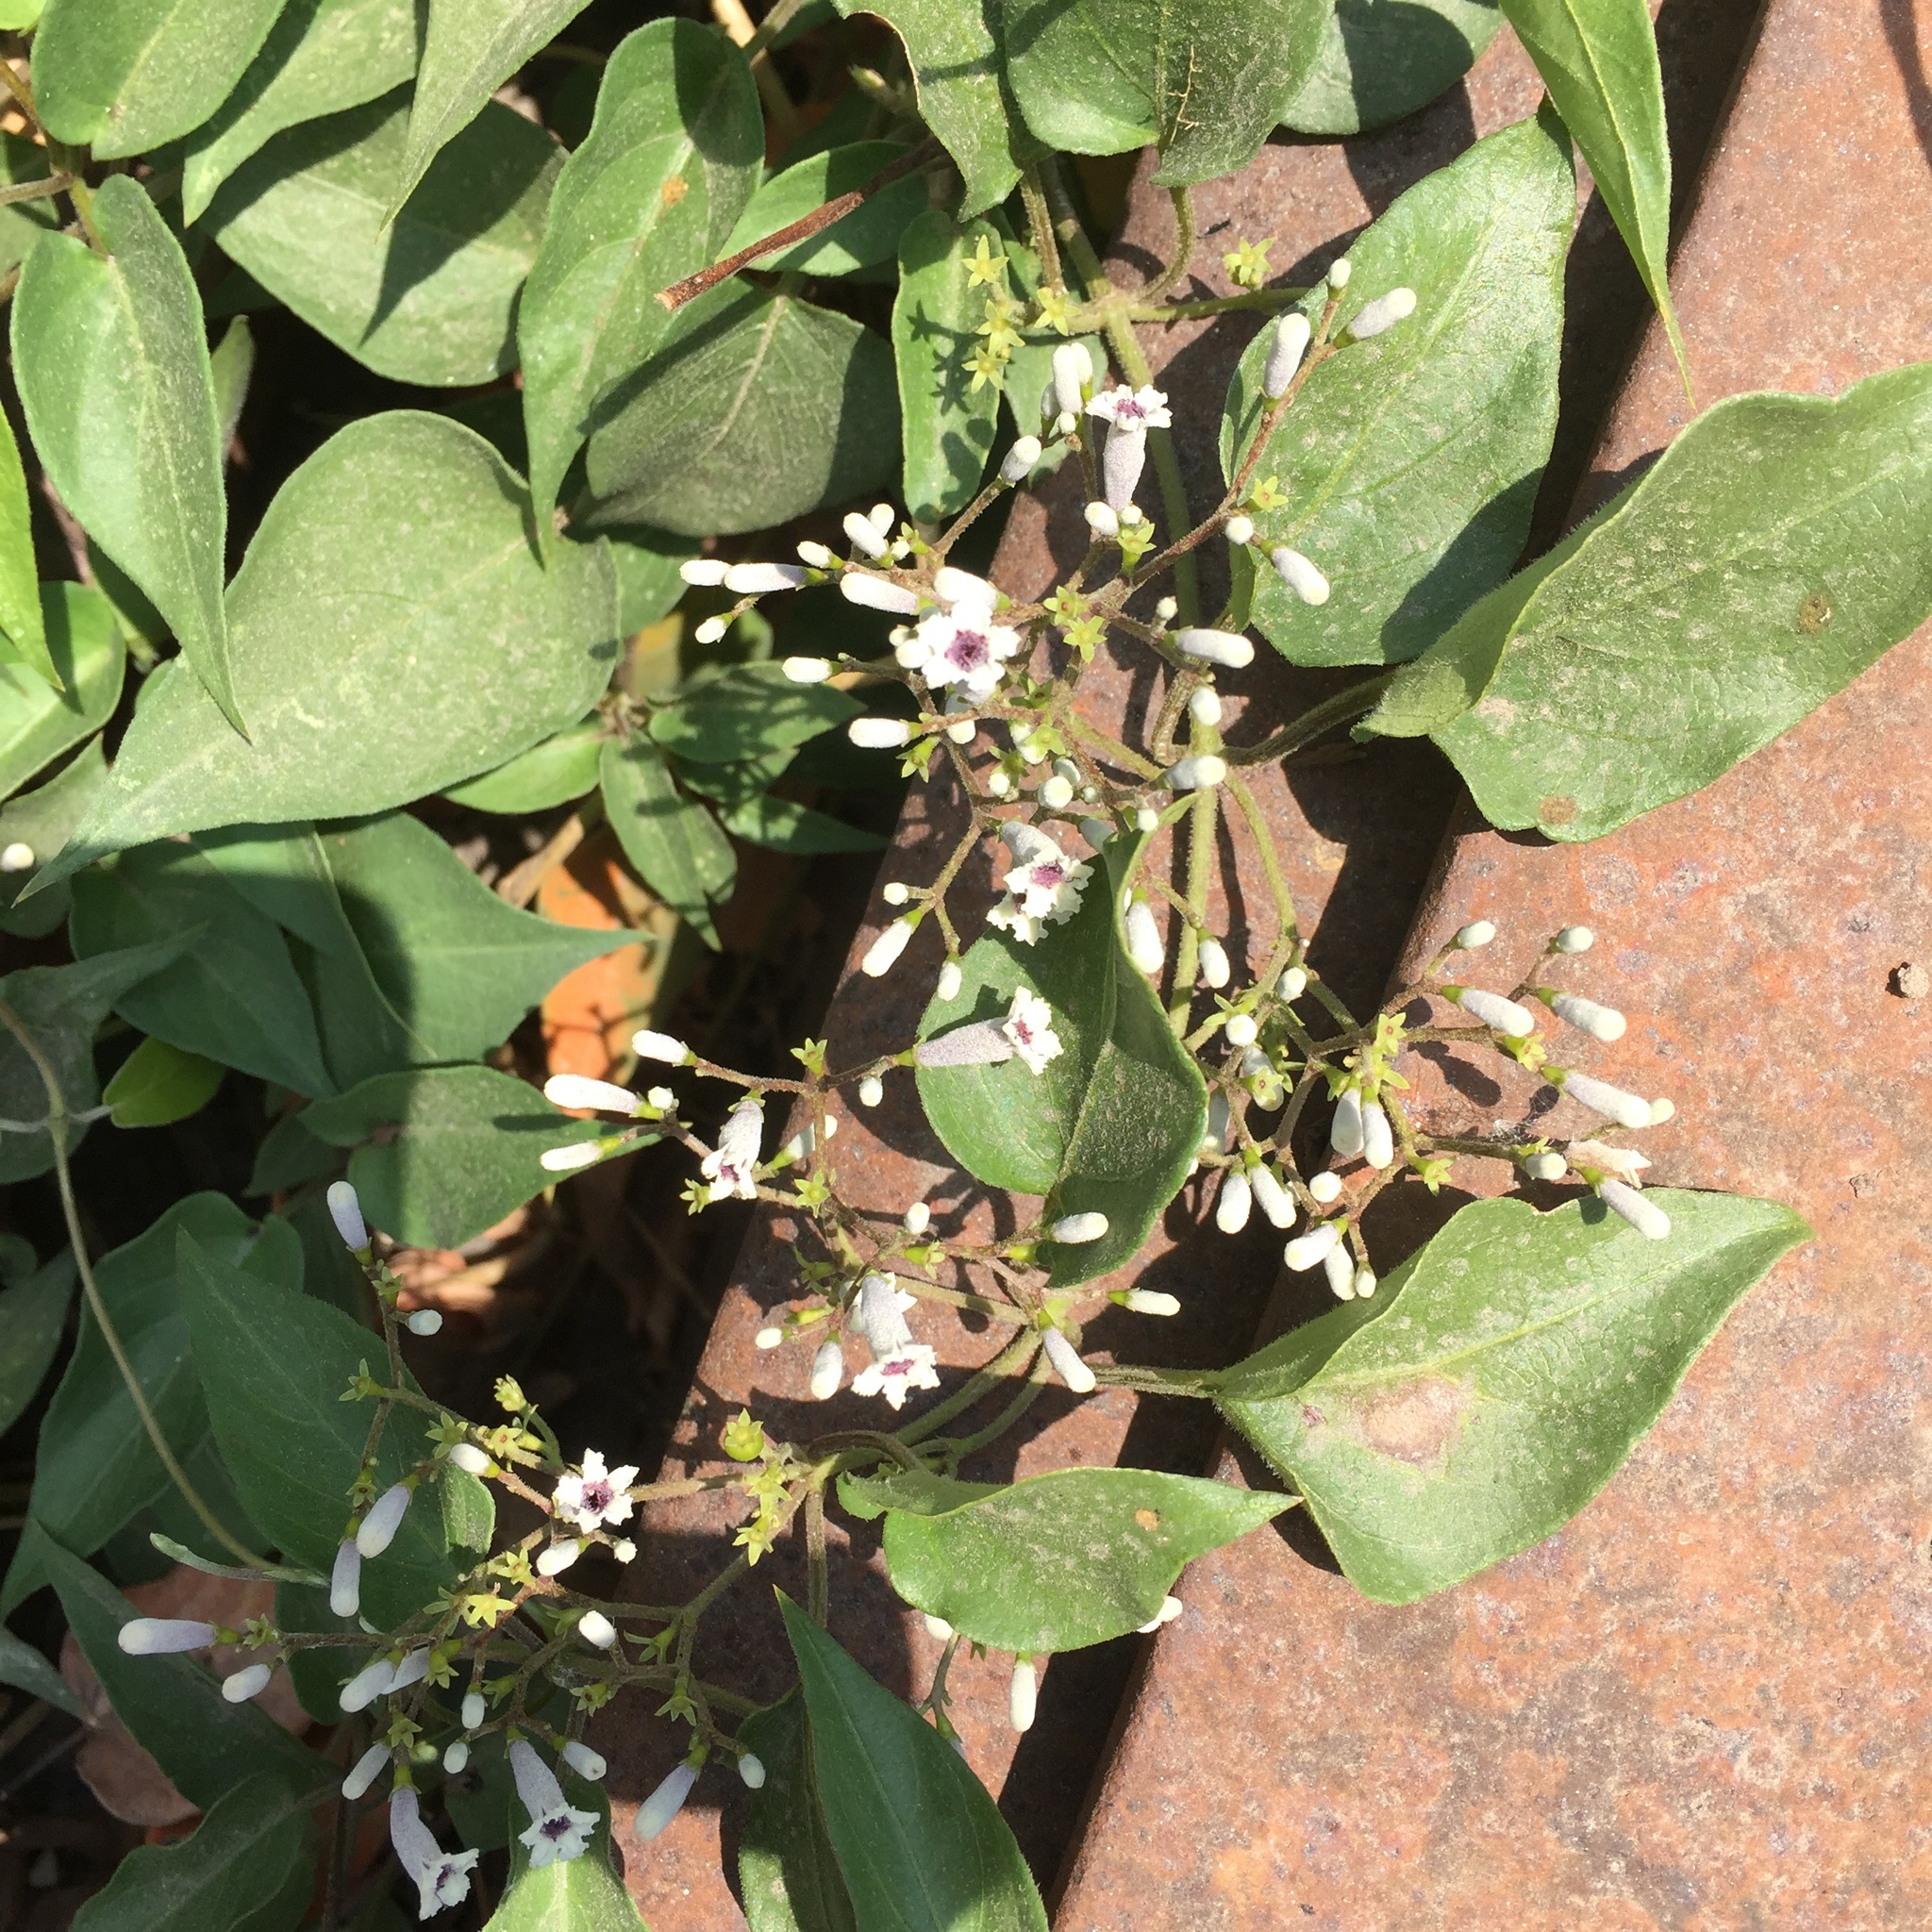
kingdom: Plantae
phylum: Tracheophyta
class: Magnoliopsida
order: Gentianales
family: Rubiaceae
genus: Paederia
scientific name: Paederia foetida
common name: Stinkvine
